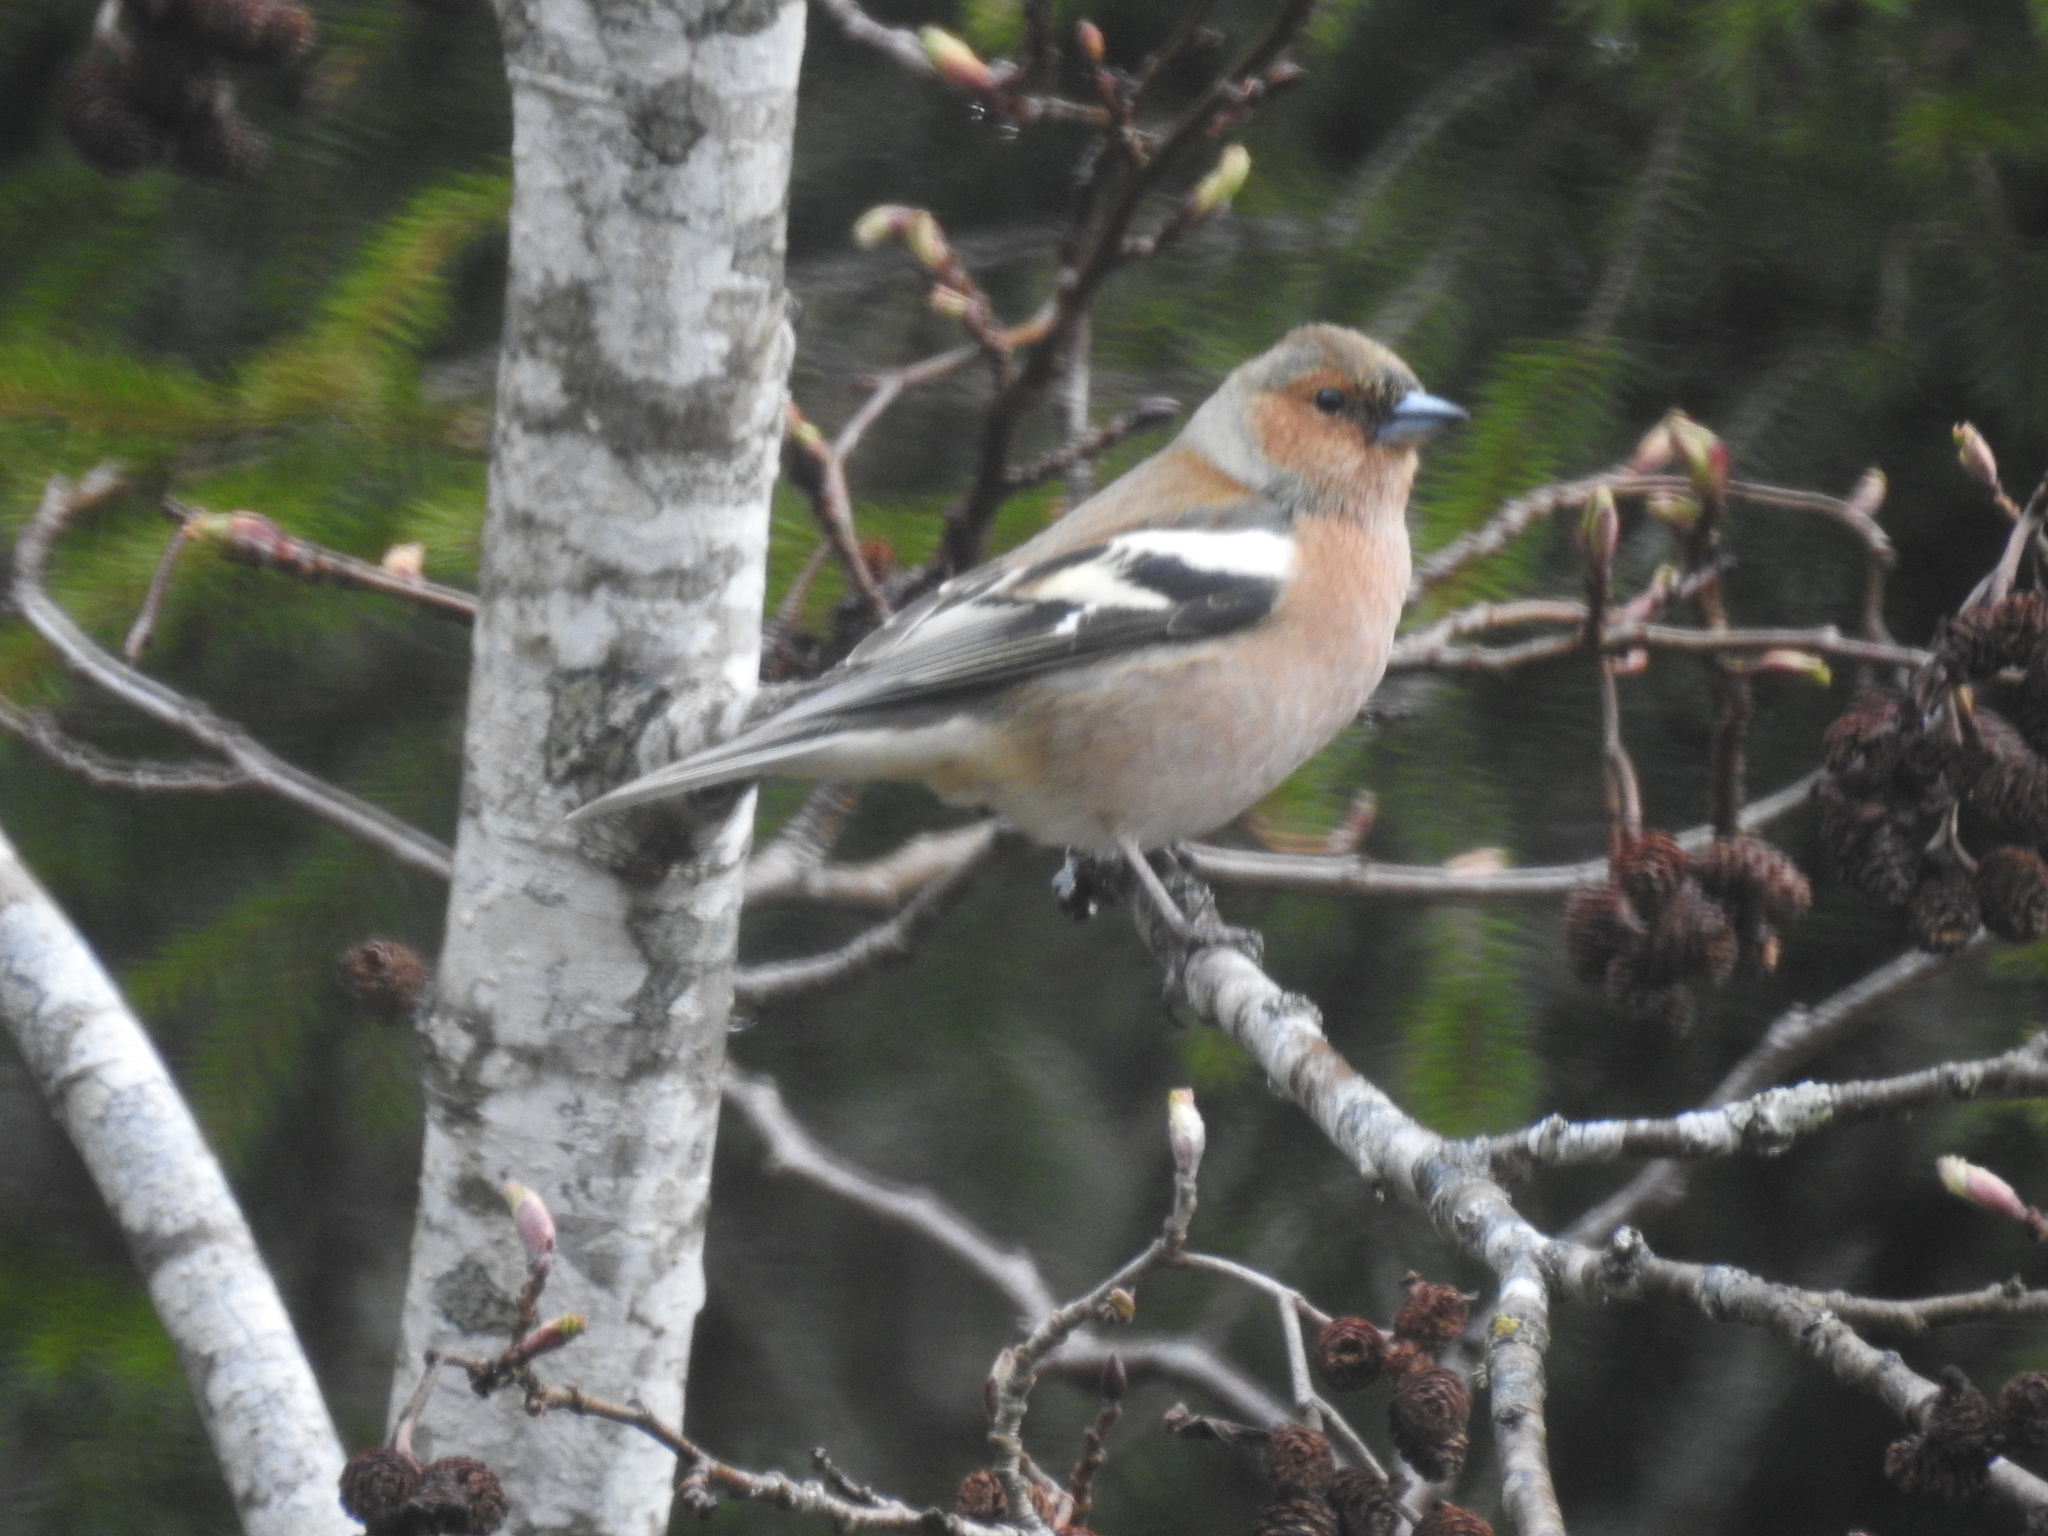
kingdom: Animalia
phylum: Chordata
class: Aves
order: Passeriformes
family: Fringillidae
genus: Fringilla
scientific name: Fringilla coelebs
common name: Common chaffinch
